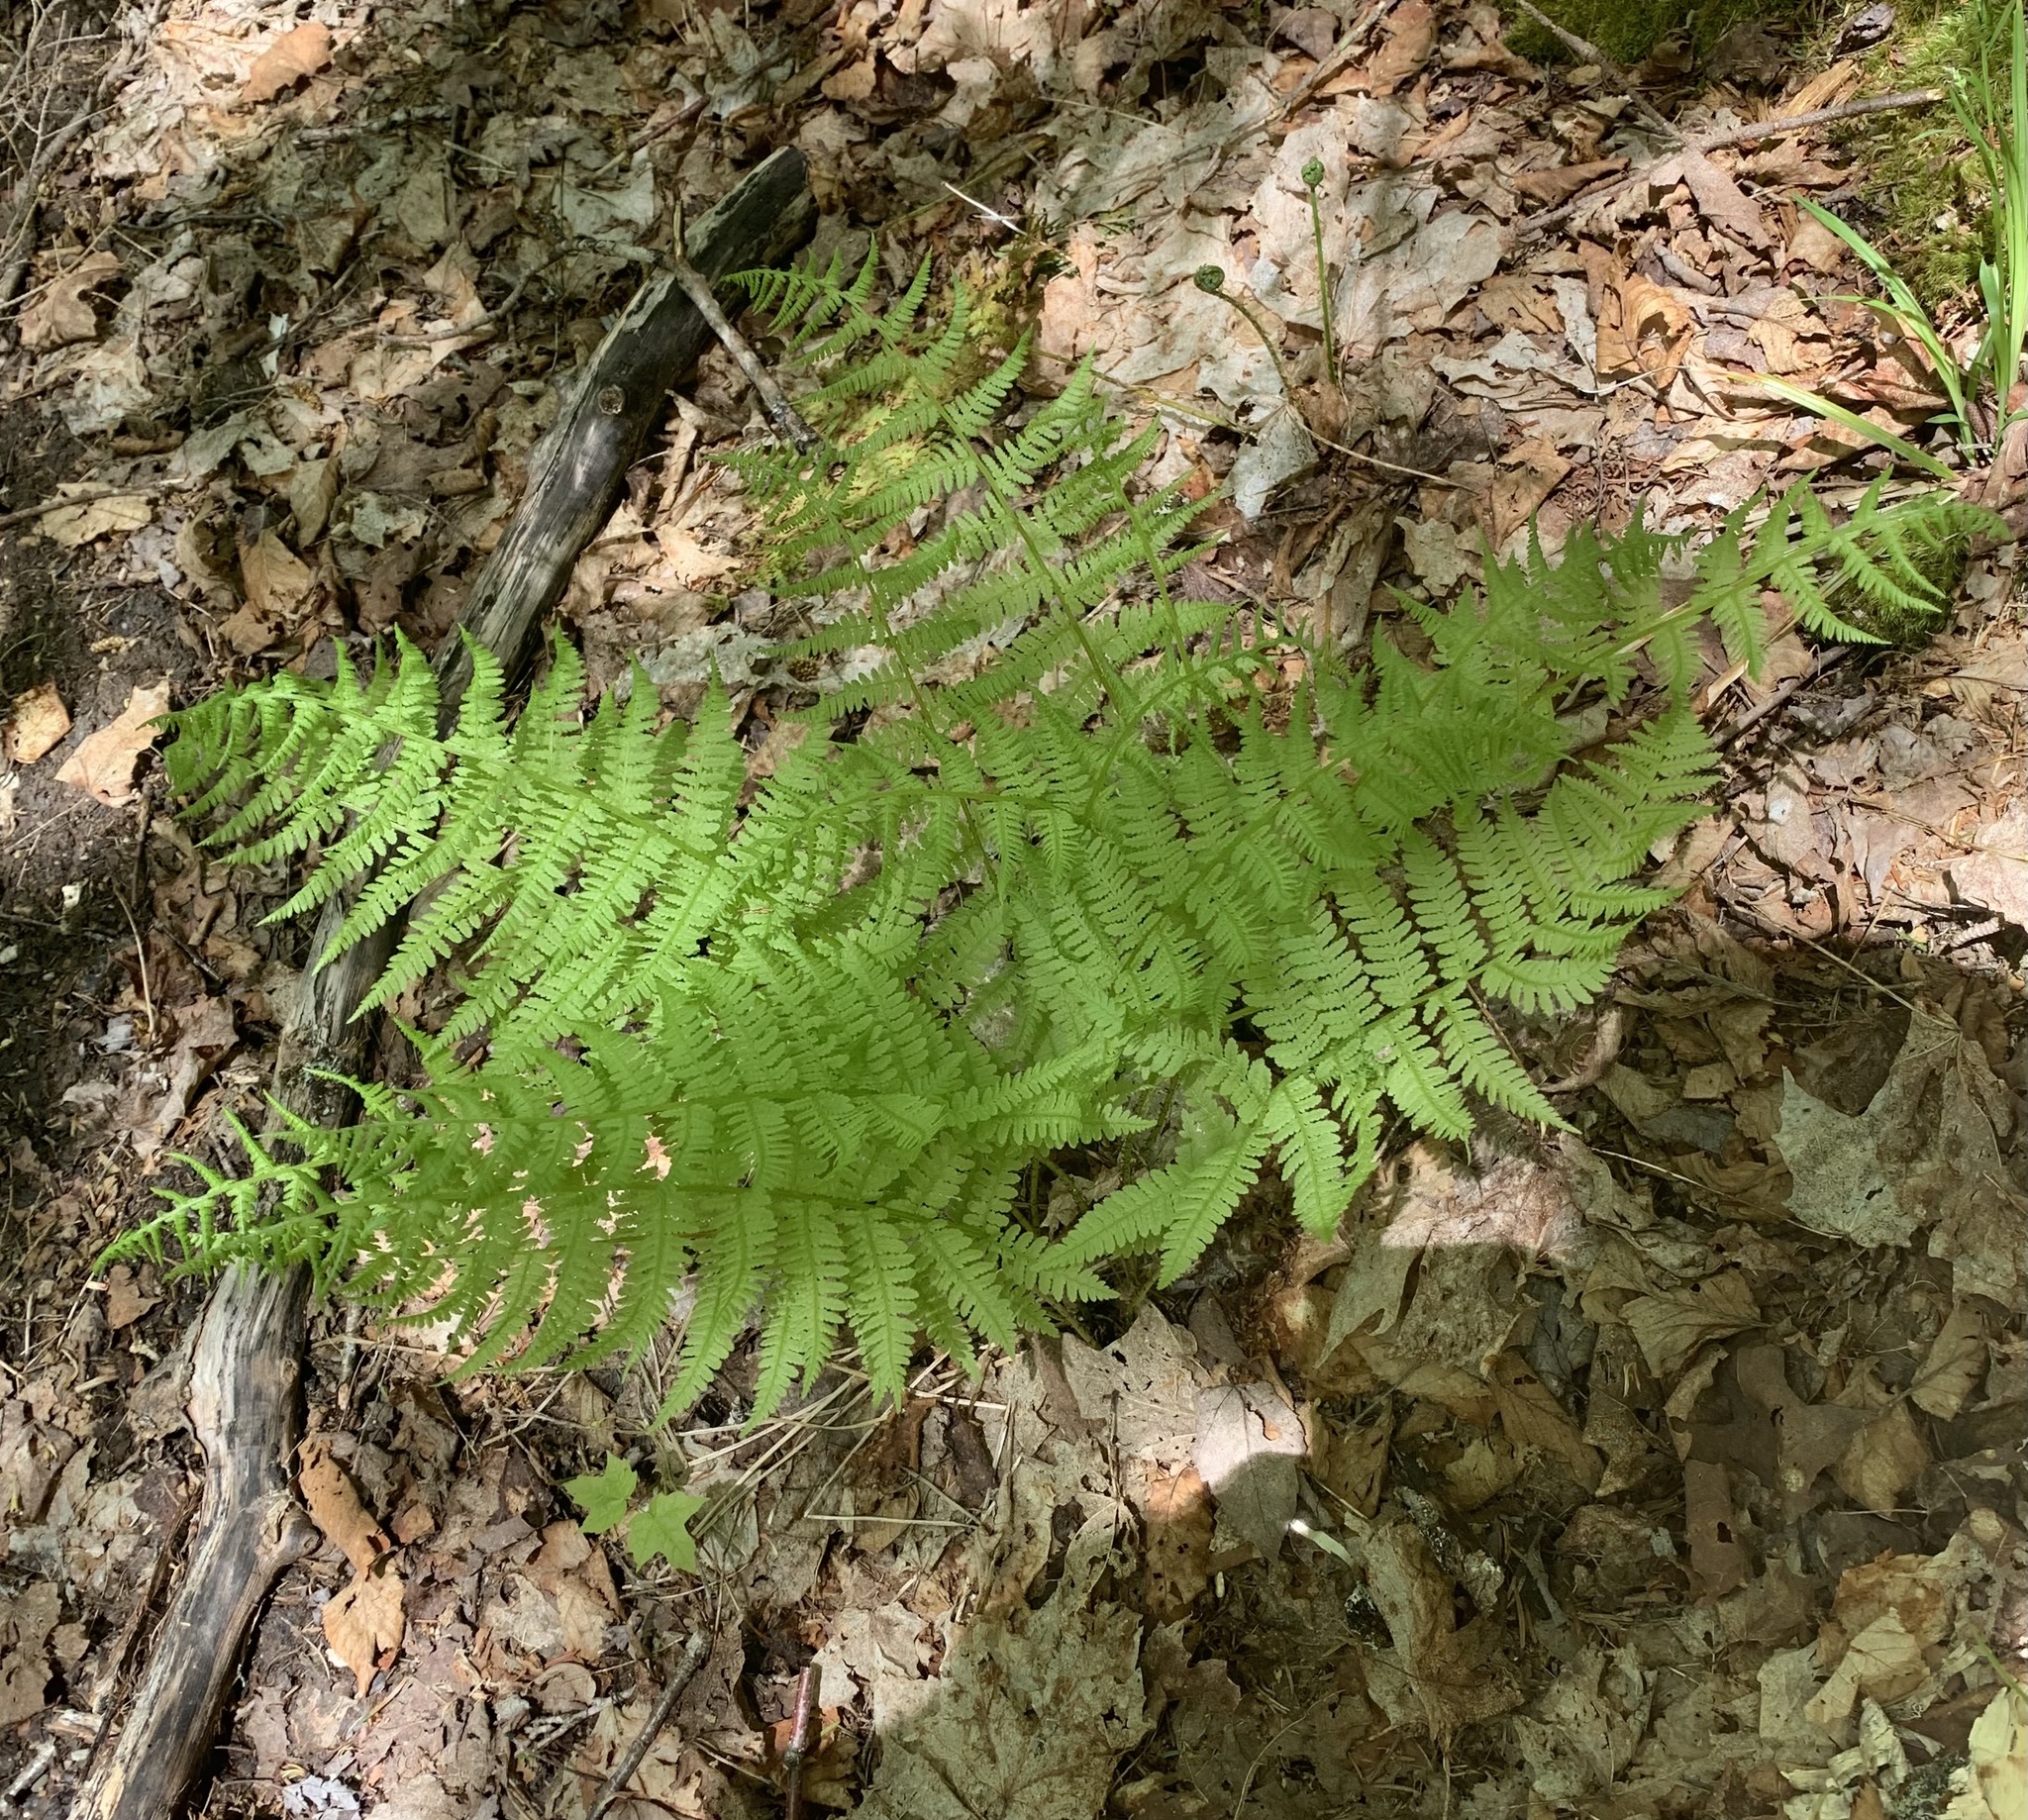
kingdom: Plantae
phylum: Tracheophyta
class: Polypodiopsida
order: Polypodiales
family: Athyriaceae
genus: Athyrium
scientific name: Athyrium angustum
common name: Northern lady fern
